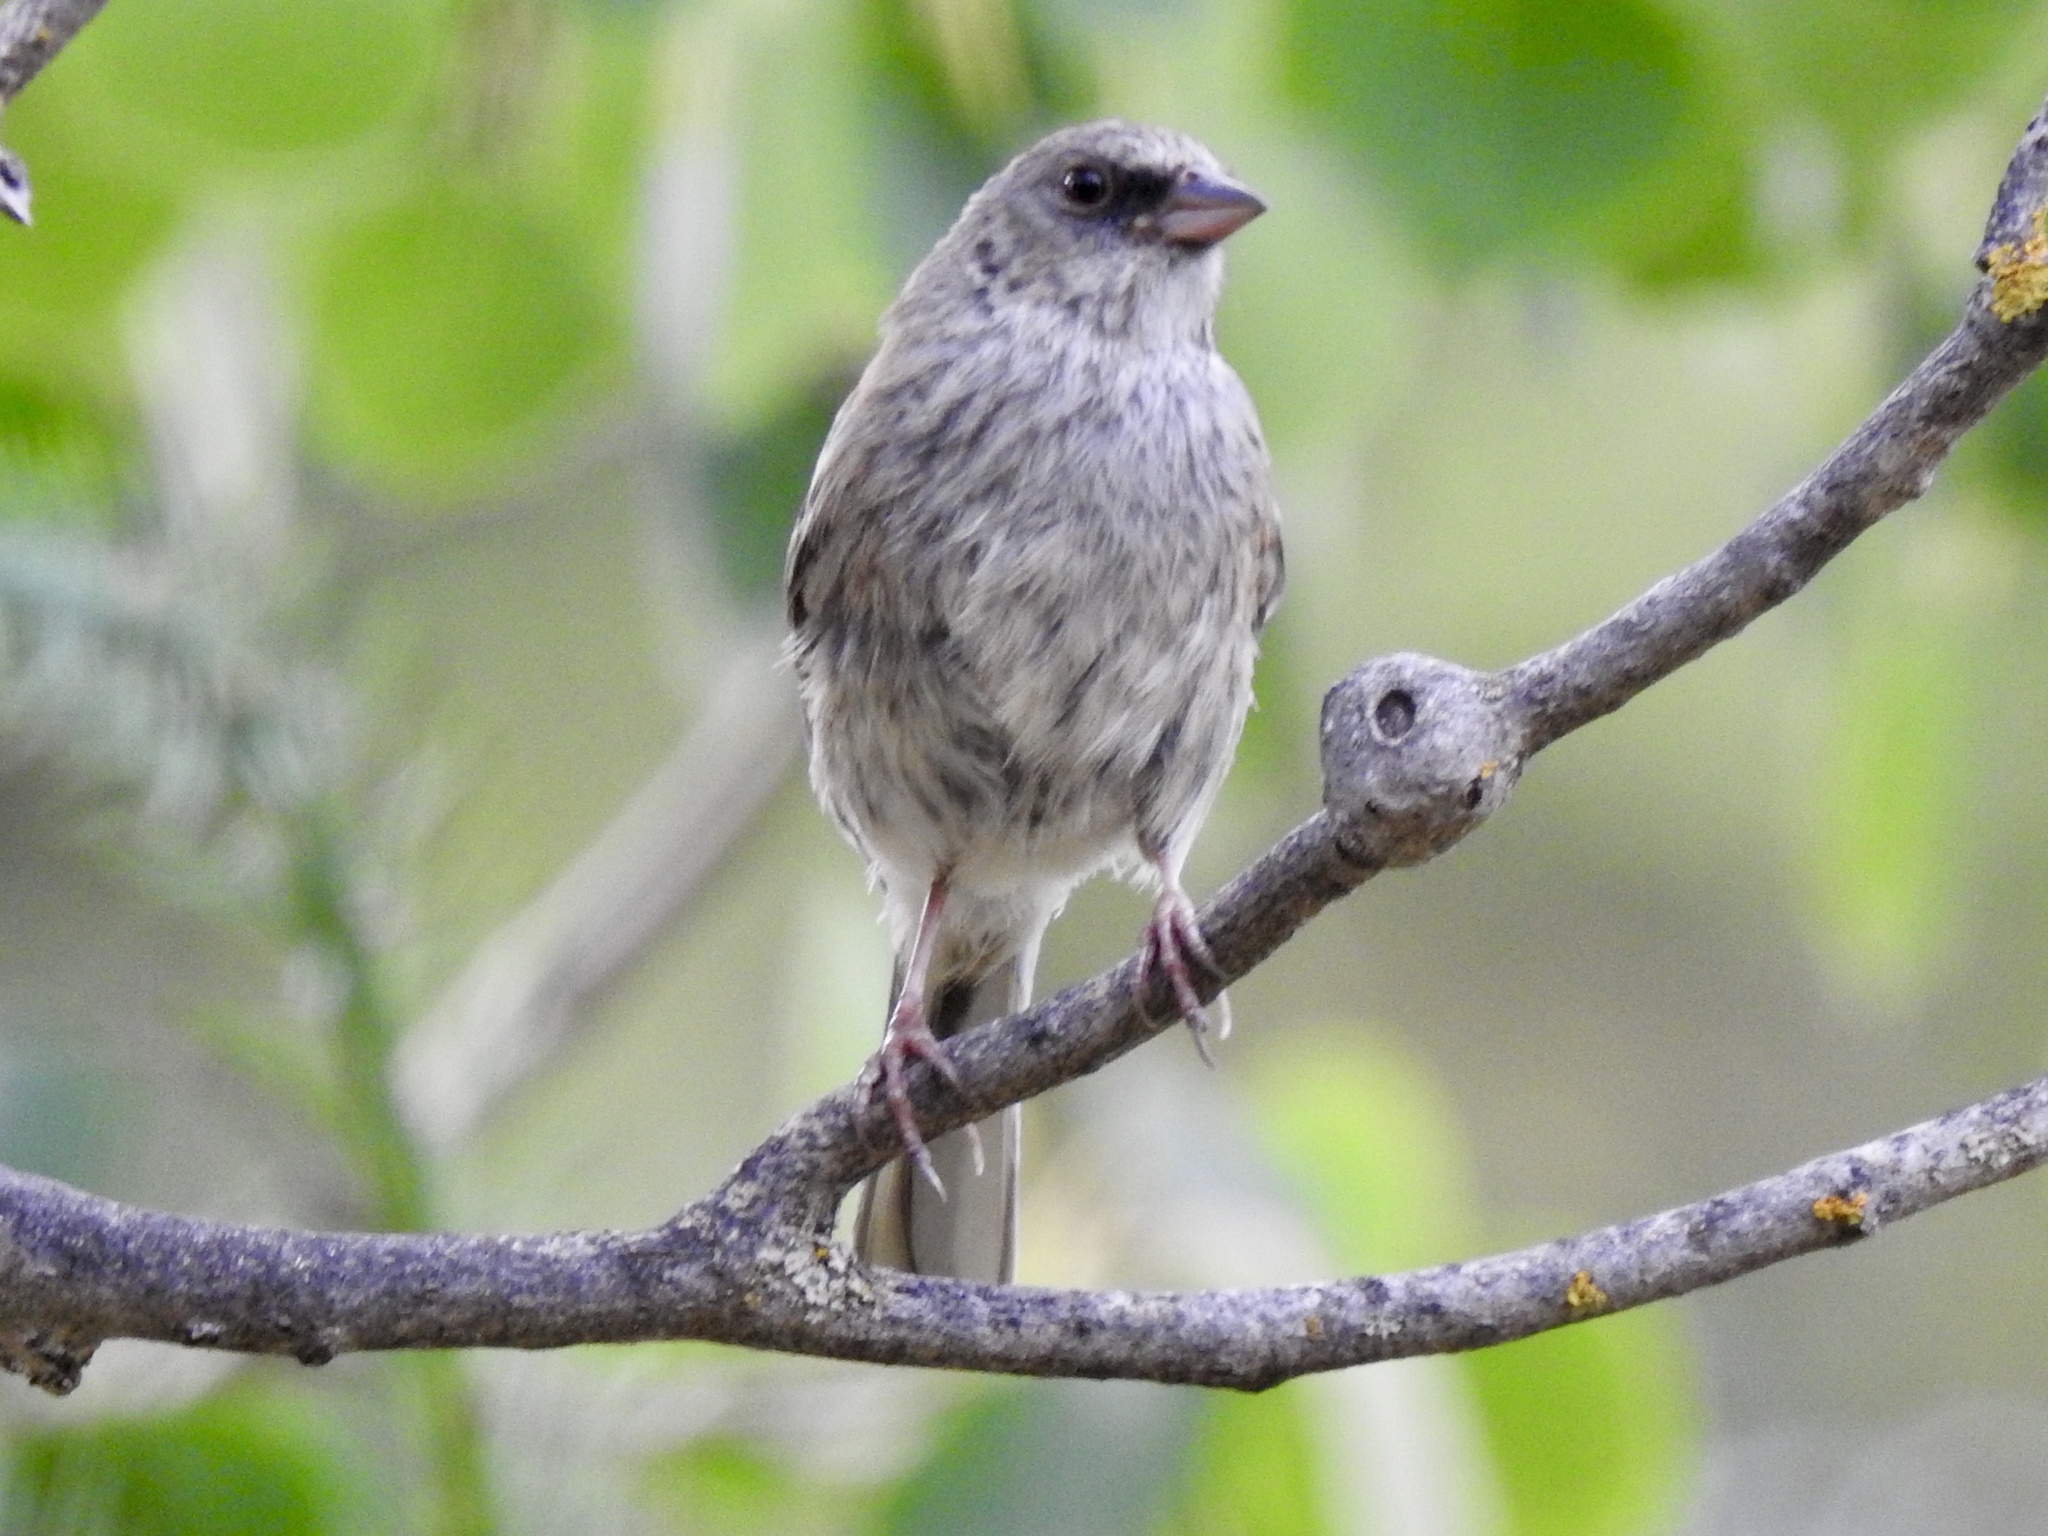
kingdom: Animalia
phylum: Chordata
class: Aves
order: Passeriformes
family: Passerellidae
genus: Junco
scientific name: Junco hyemalis
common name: Dark-eyed junco
